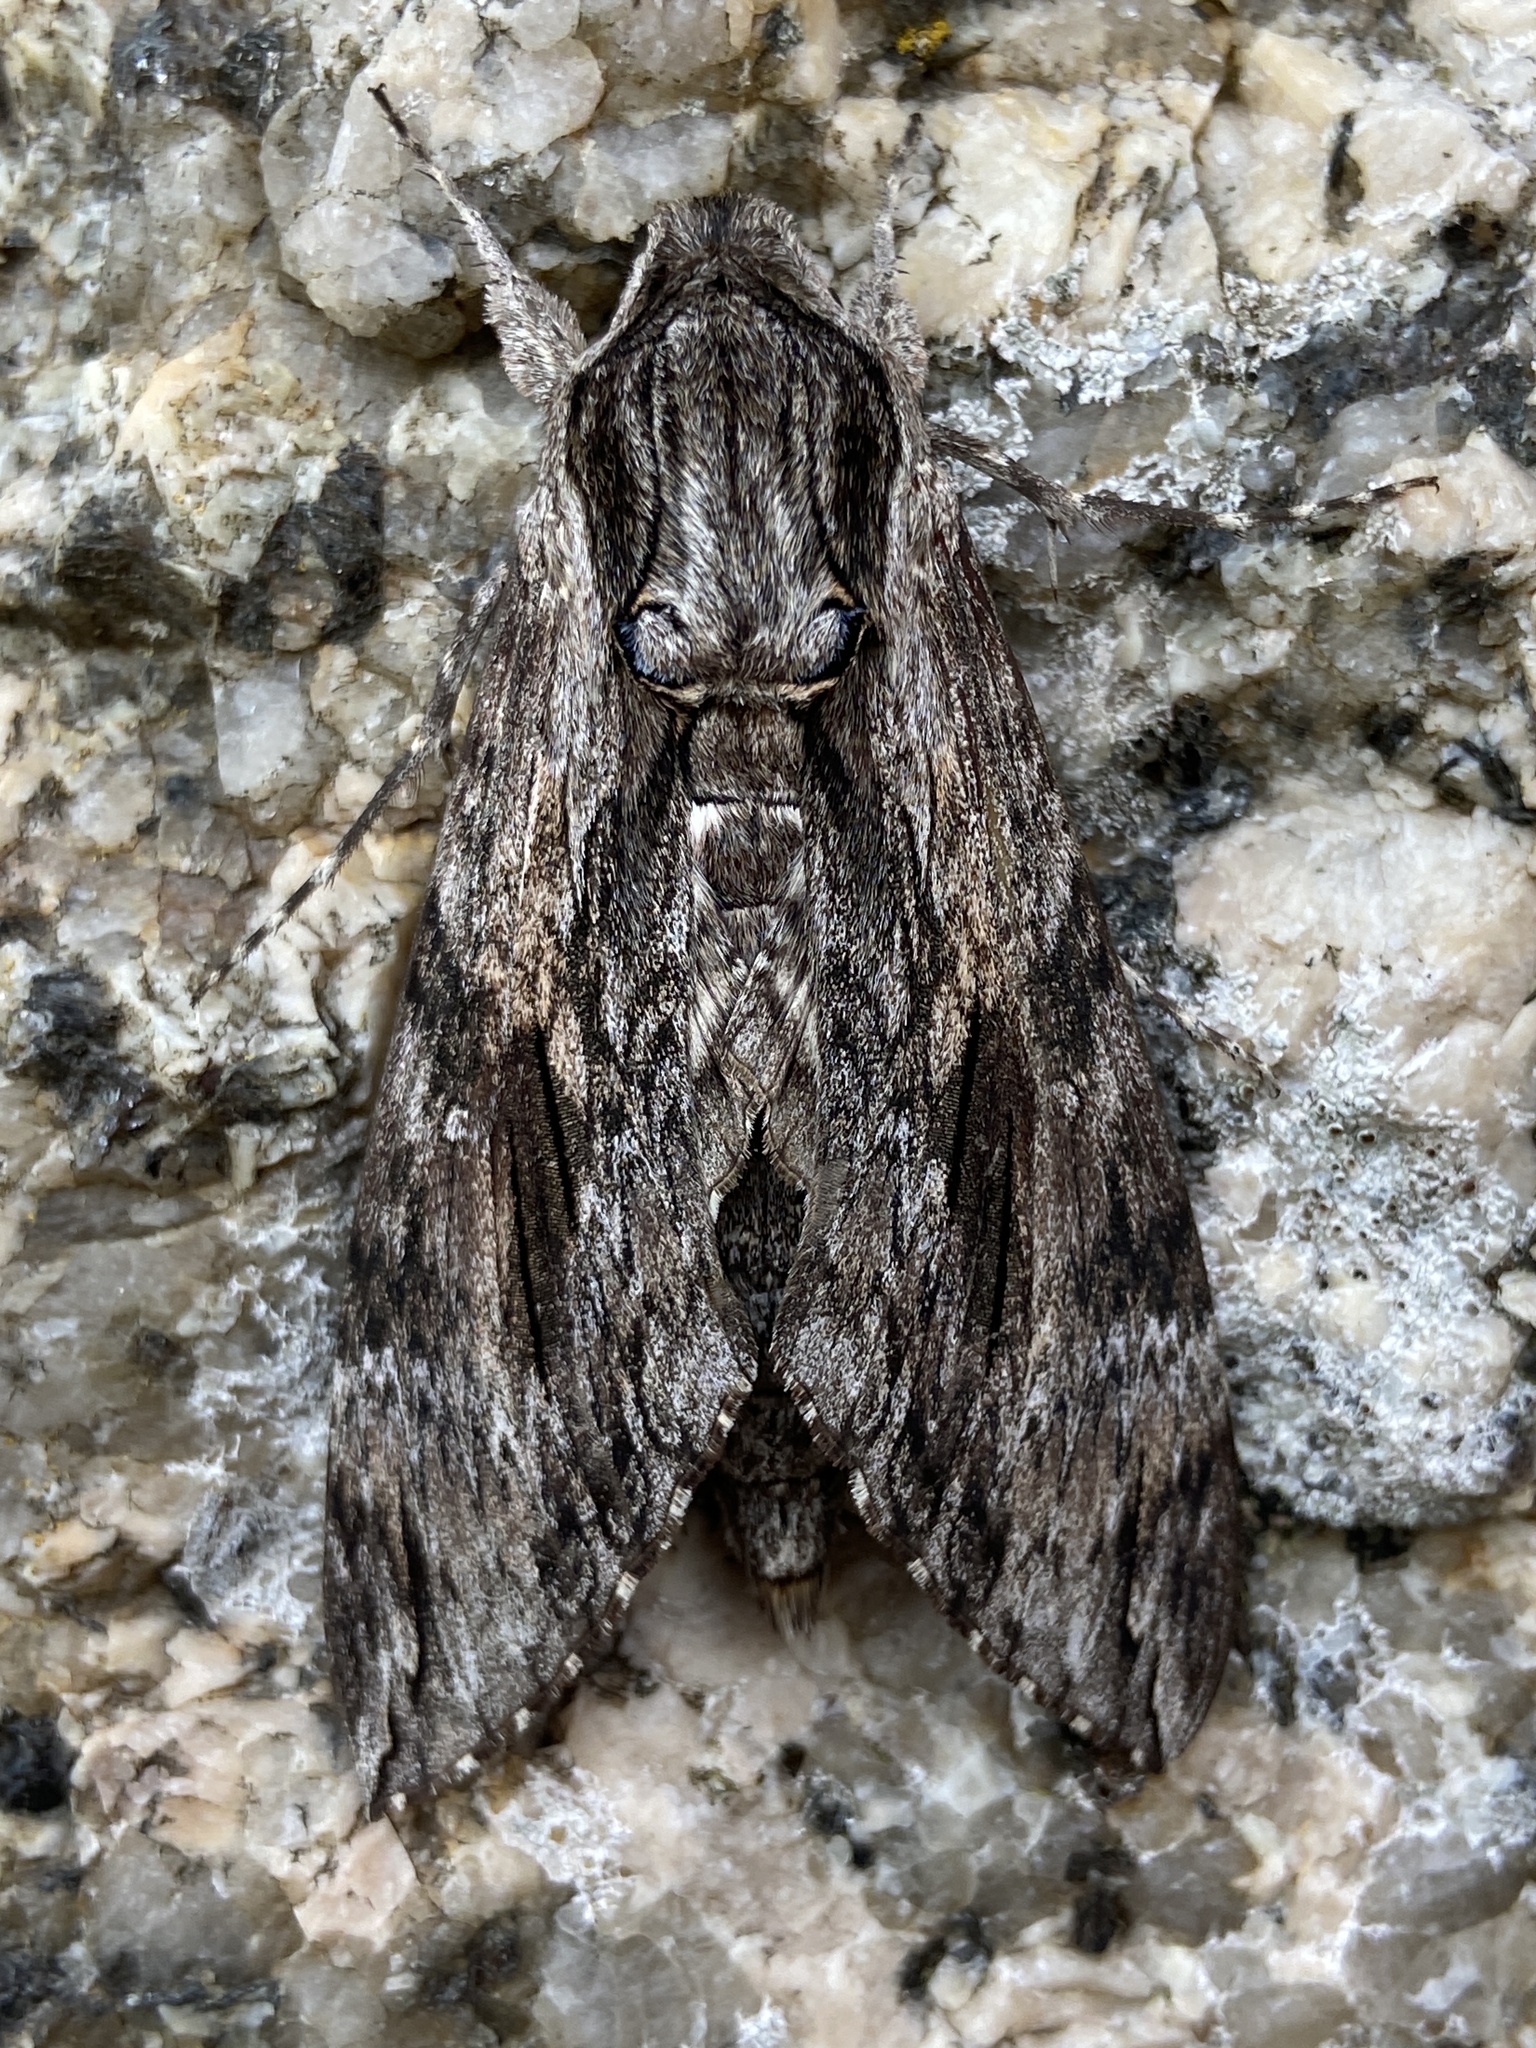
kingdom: Animalia
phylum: Arthropoda
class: Insecta
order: Lepidoptera
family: Sphingidae
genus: Agrius
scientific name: Agrius convolvuli
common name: Convolvulus hawkmoth
